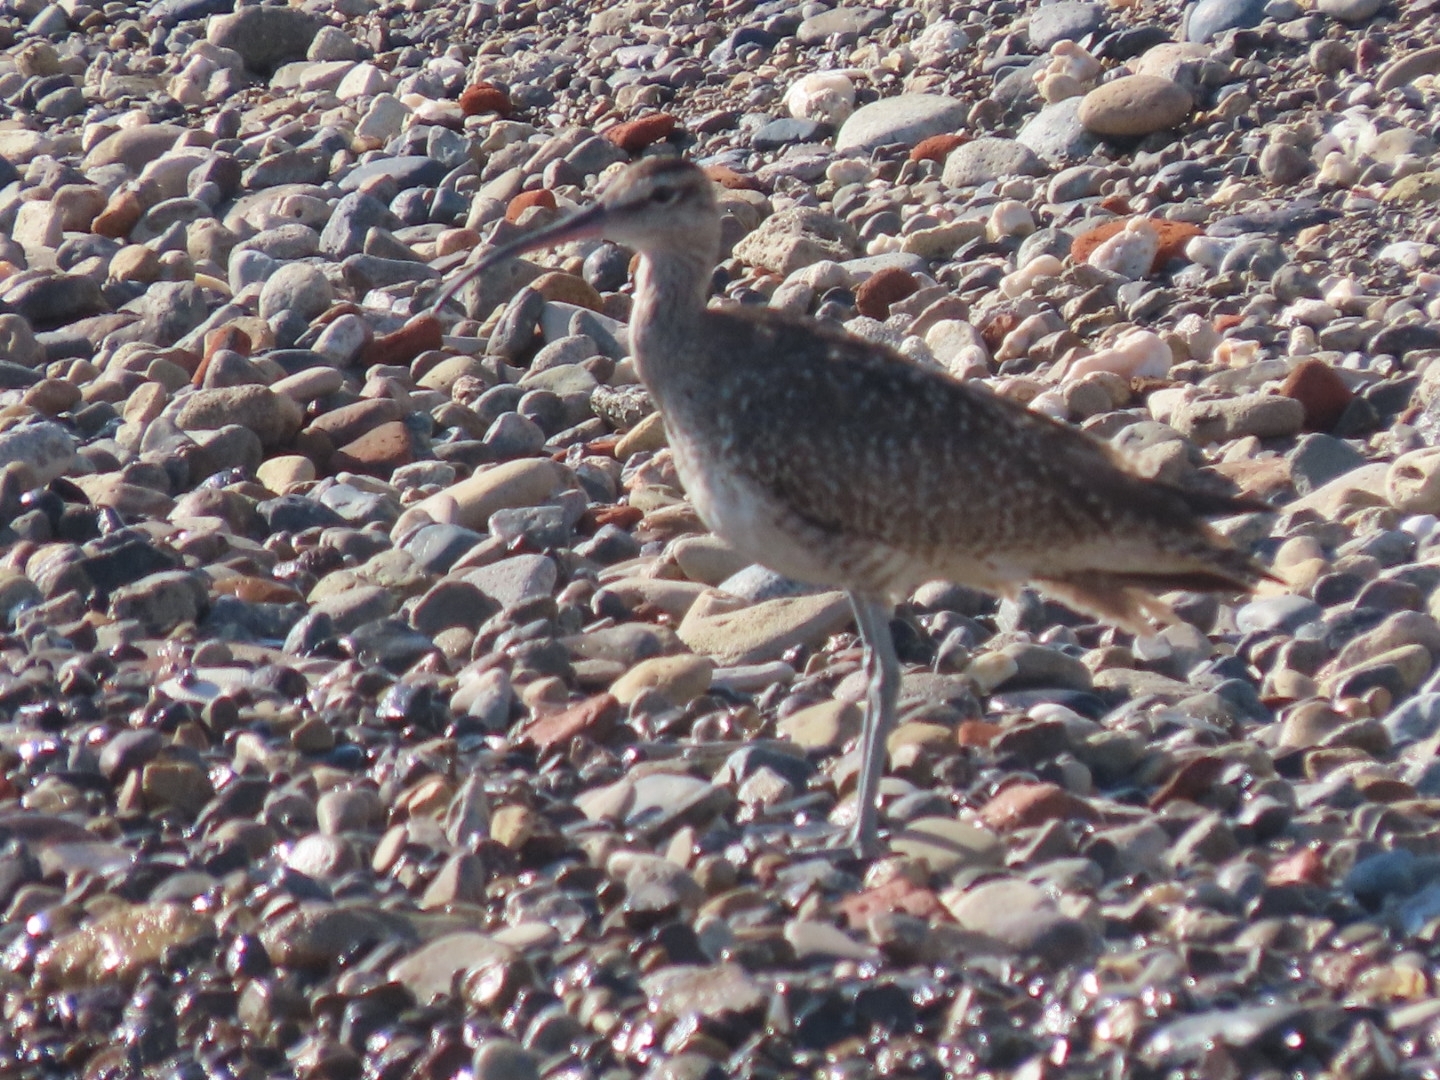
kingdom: Animalia
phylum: Chordata
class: Aves
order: Charadriiformes
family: Scolopacidae
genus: Numenius
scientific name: Numenius phaeopus
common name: Whimbrel
